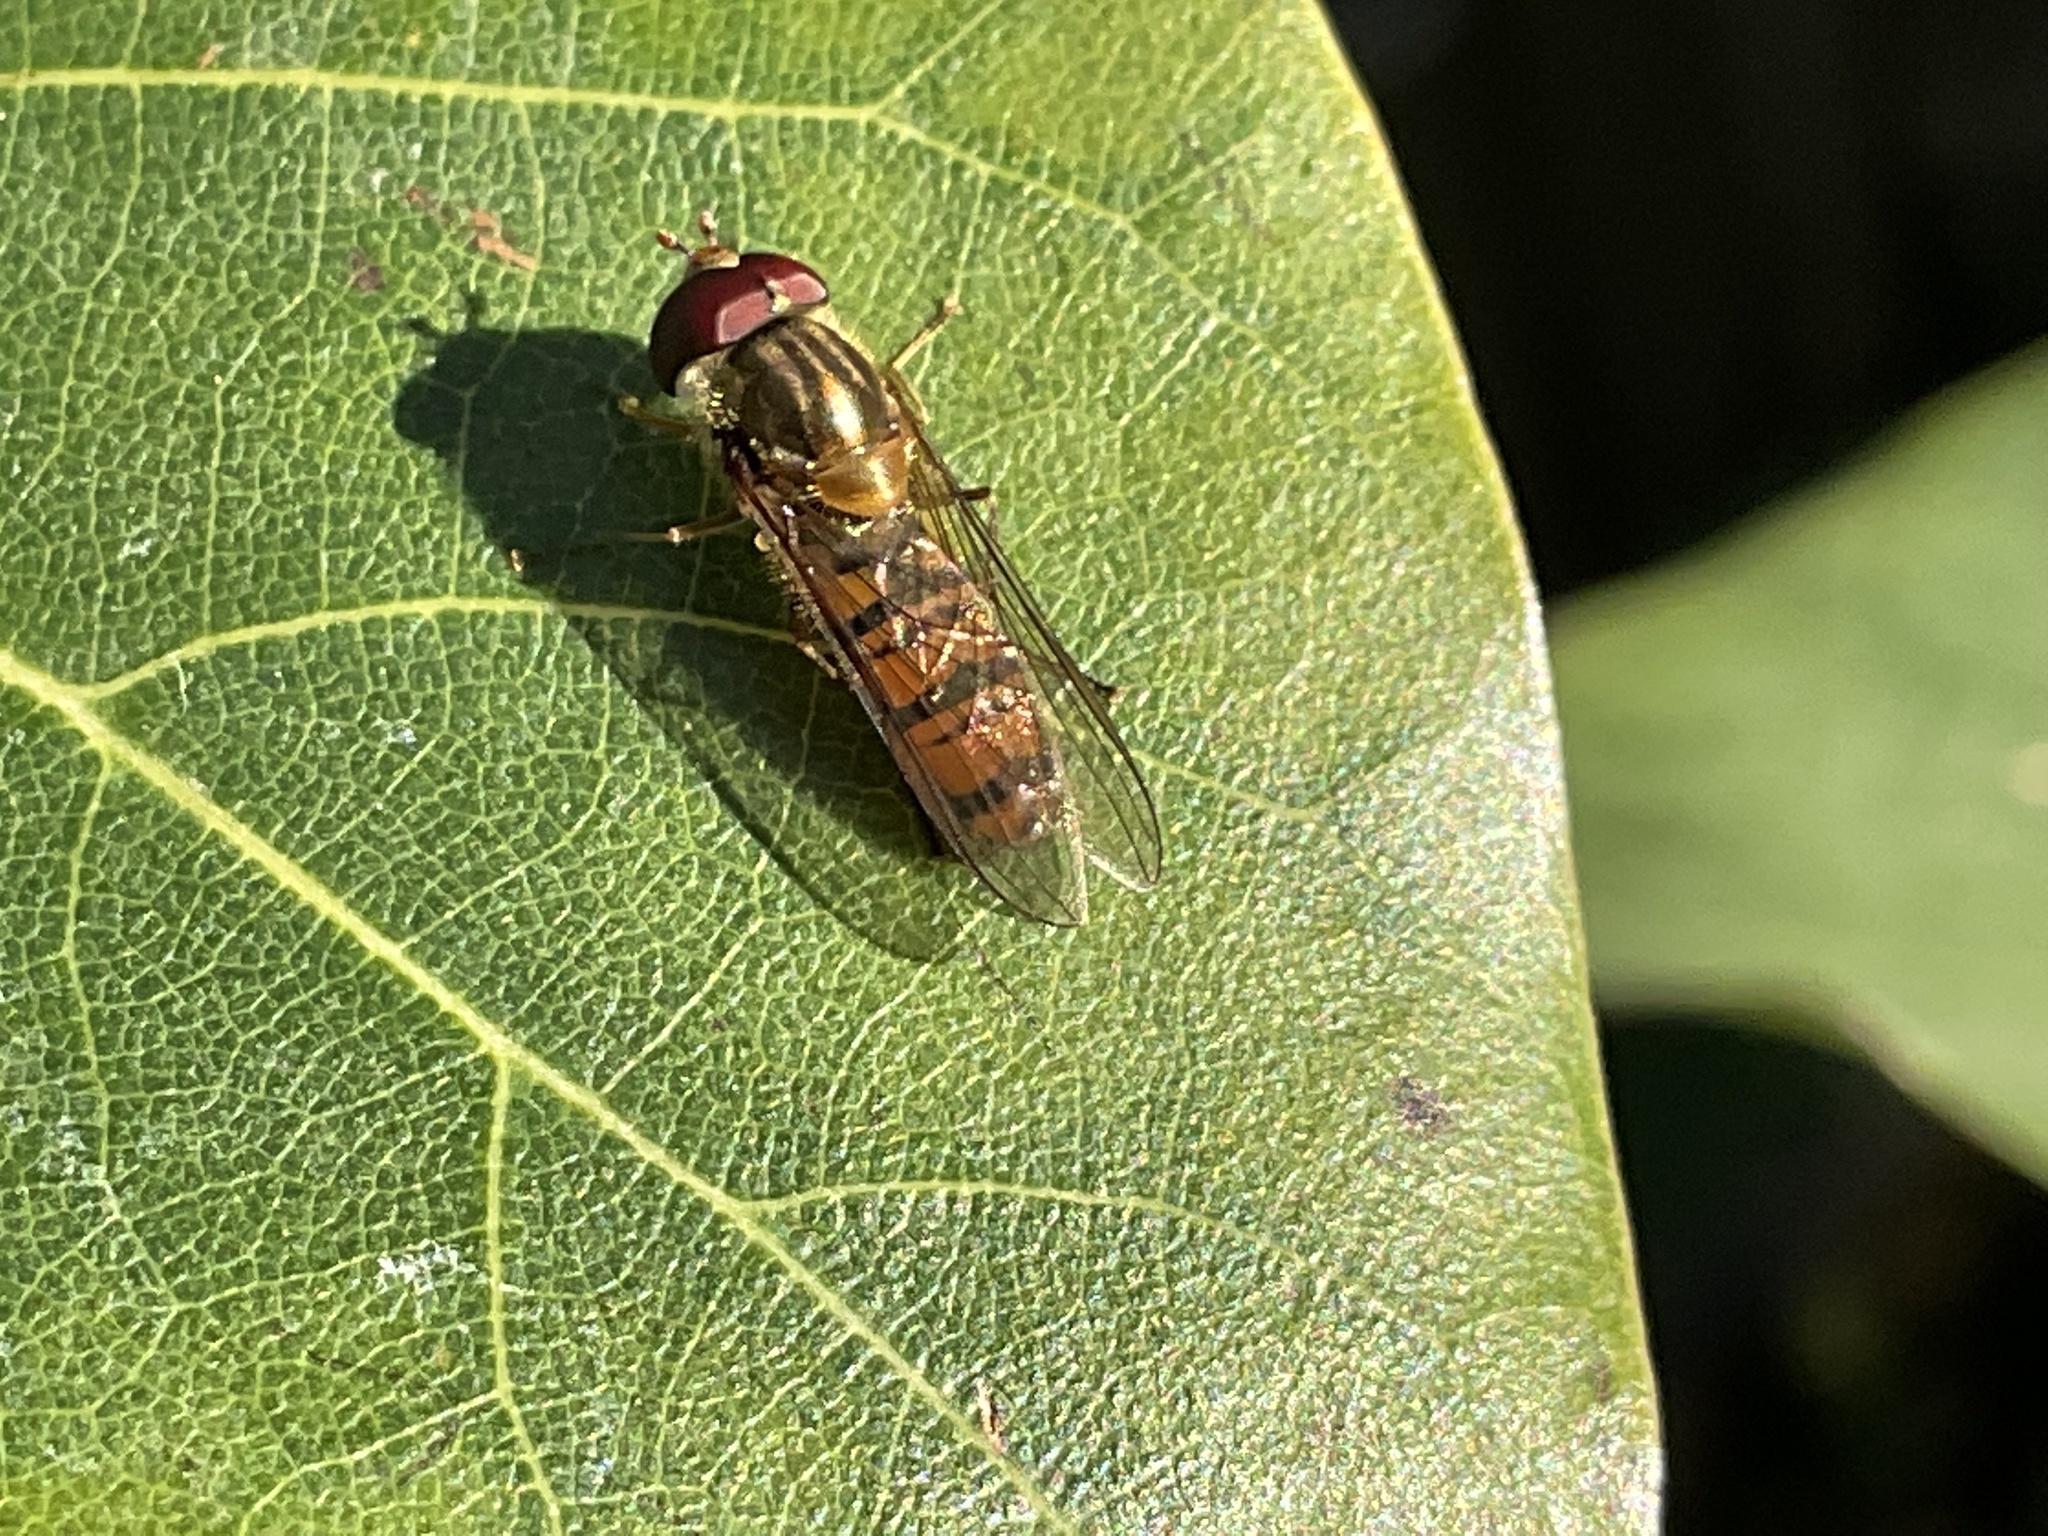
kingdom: Animalia
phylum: Arthropoda
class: Insecta
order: Diptera
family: Syrphidae
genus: Episyrphus
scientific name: Episyrphus balteatus
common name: Marmalade hoverfly
